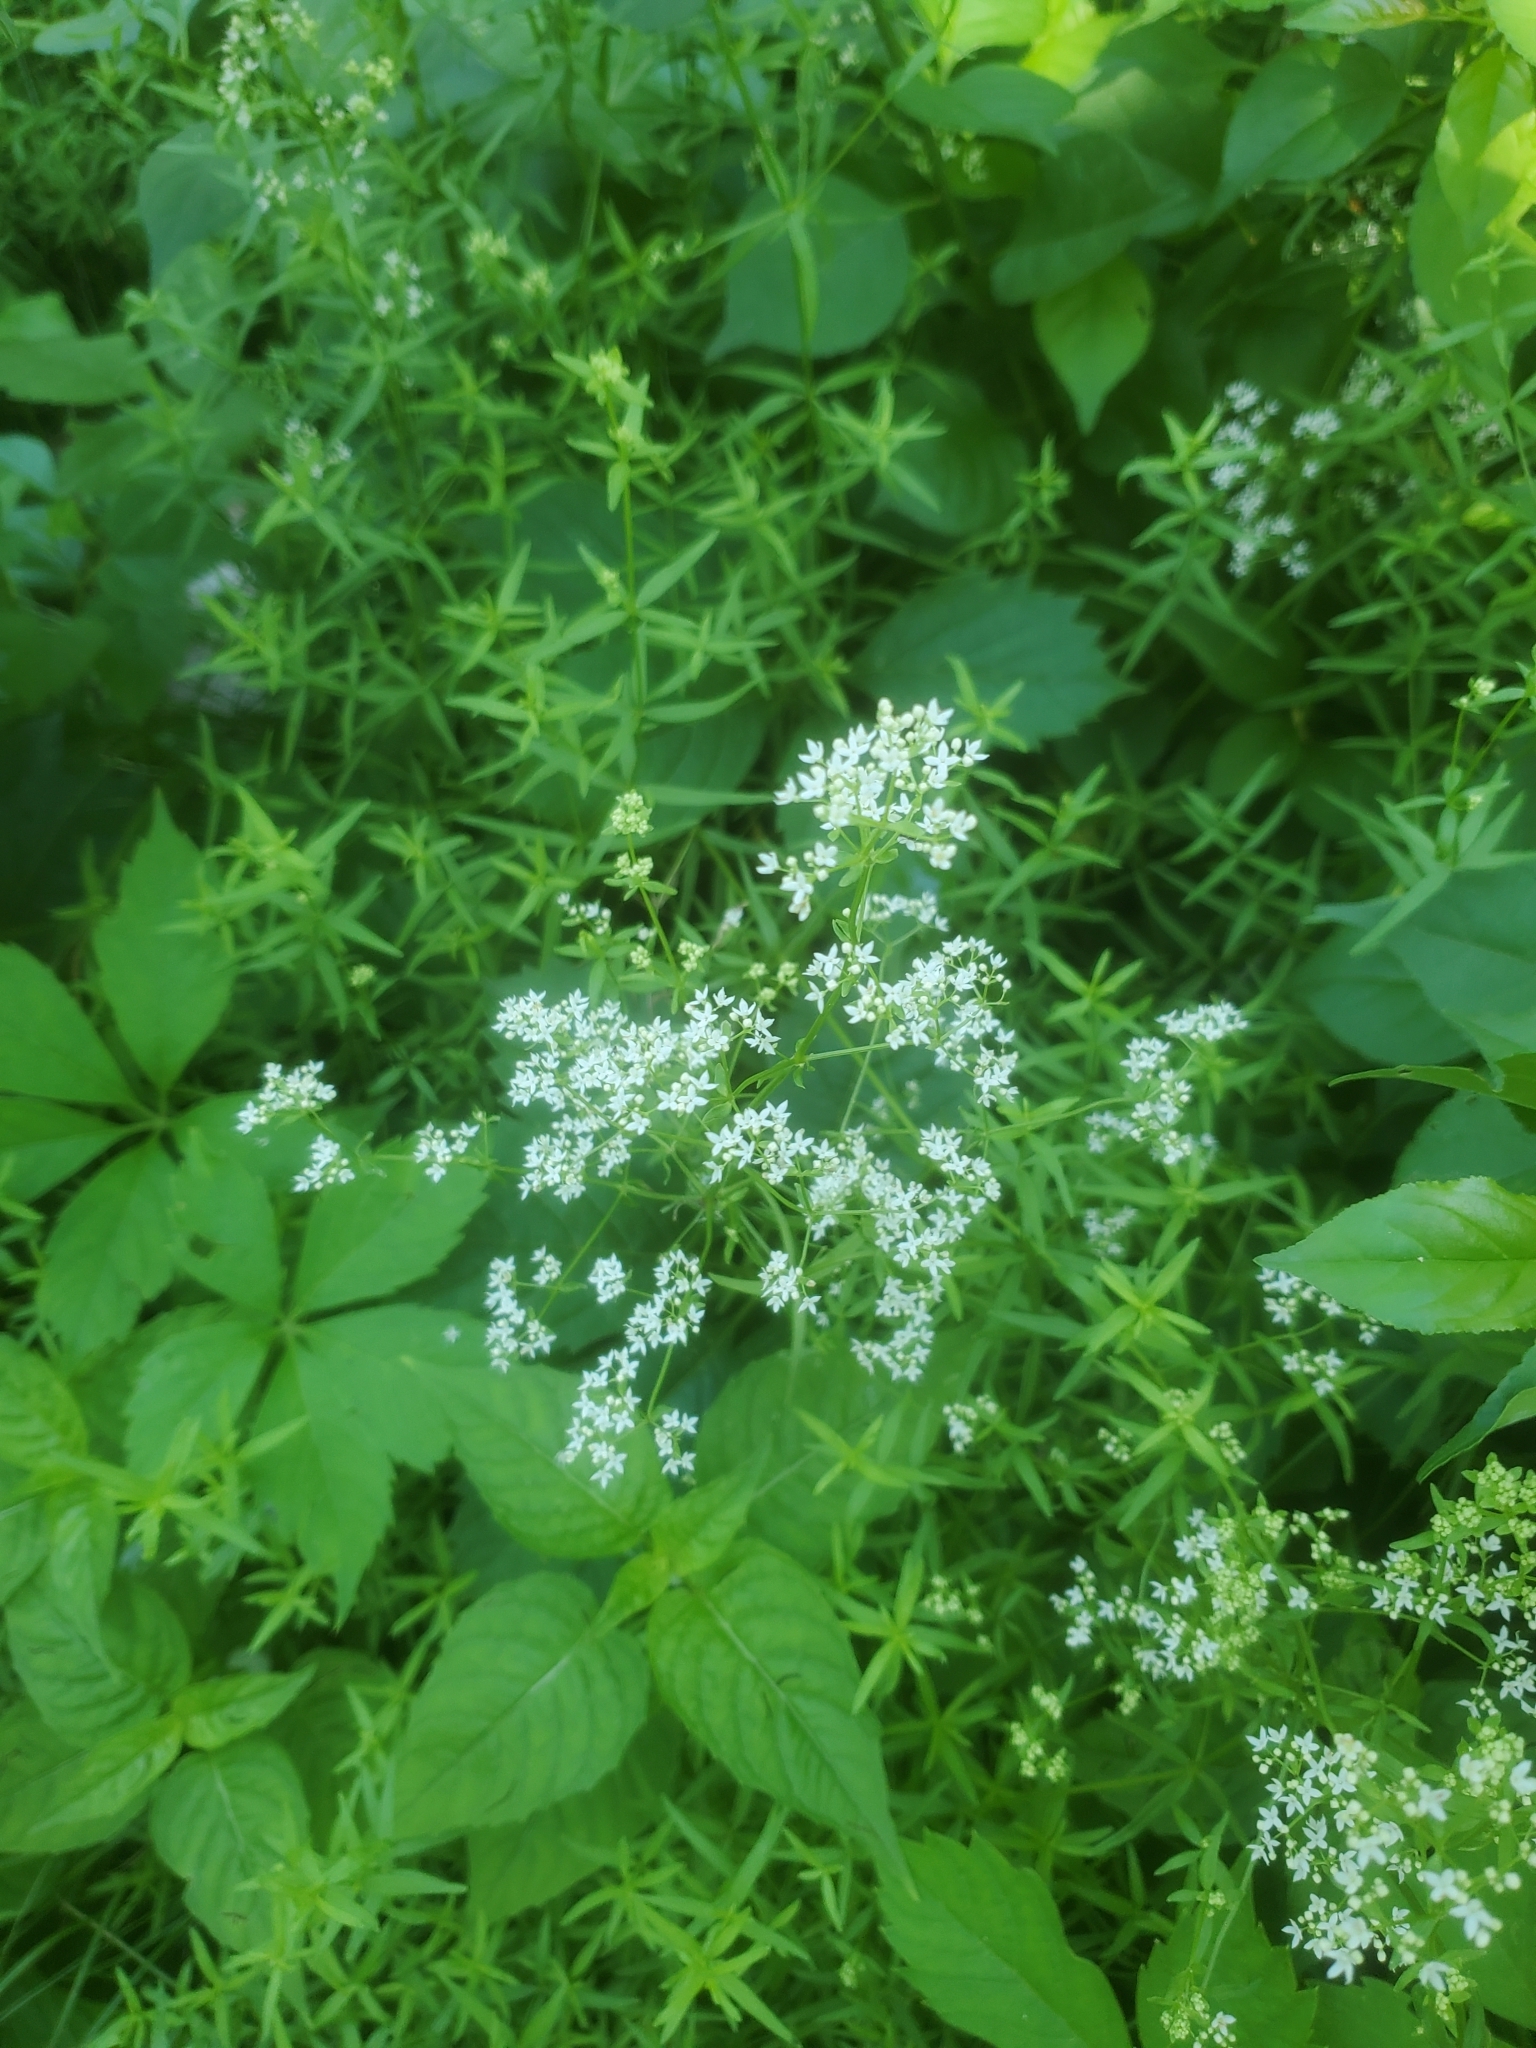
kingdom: Plantae
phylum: Tracheophyta
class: Magnoliopsida
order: Gentianales
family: Rubiaceae
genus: Galium
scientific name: Galium boreale
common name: Northern bedstraw
